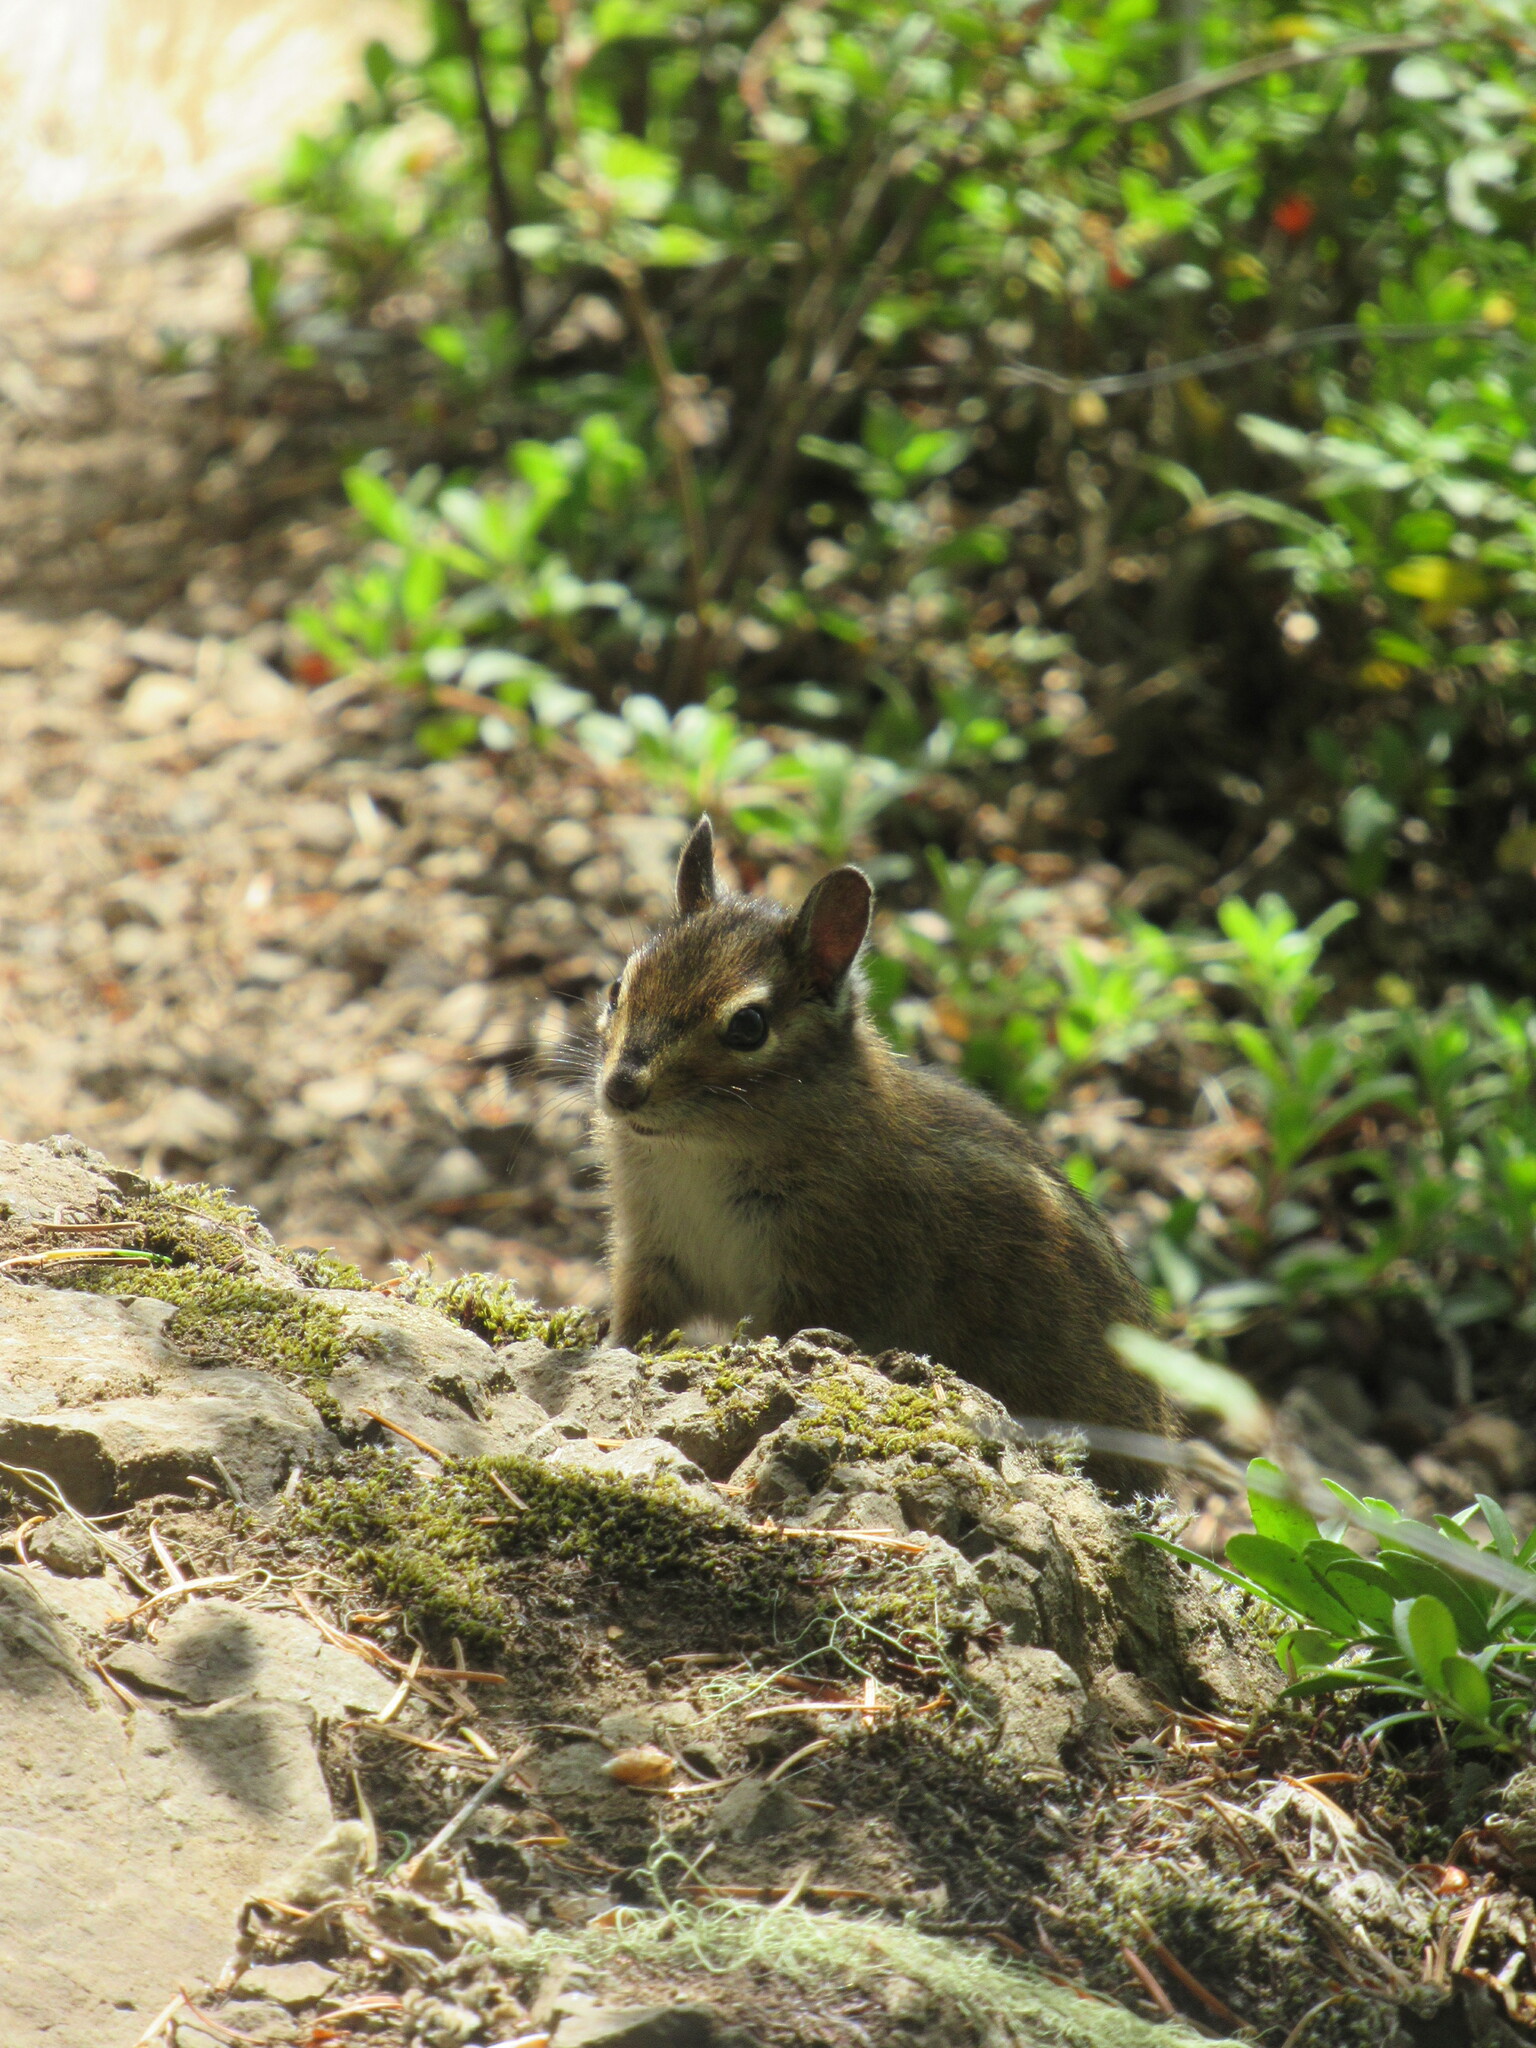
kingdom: Animalia
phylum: Chordata
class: Mammalia
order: Rodentia
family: Sciuridae
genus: Tamias
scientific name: Tamias townsendii
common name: Townsend's chipmunk
